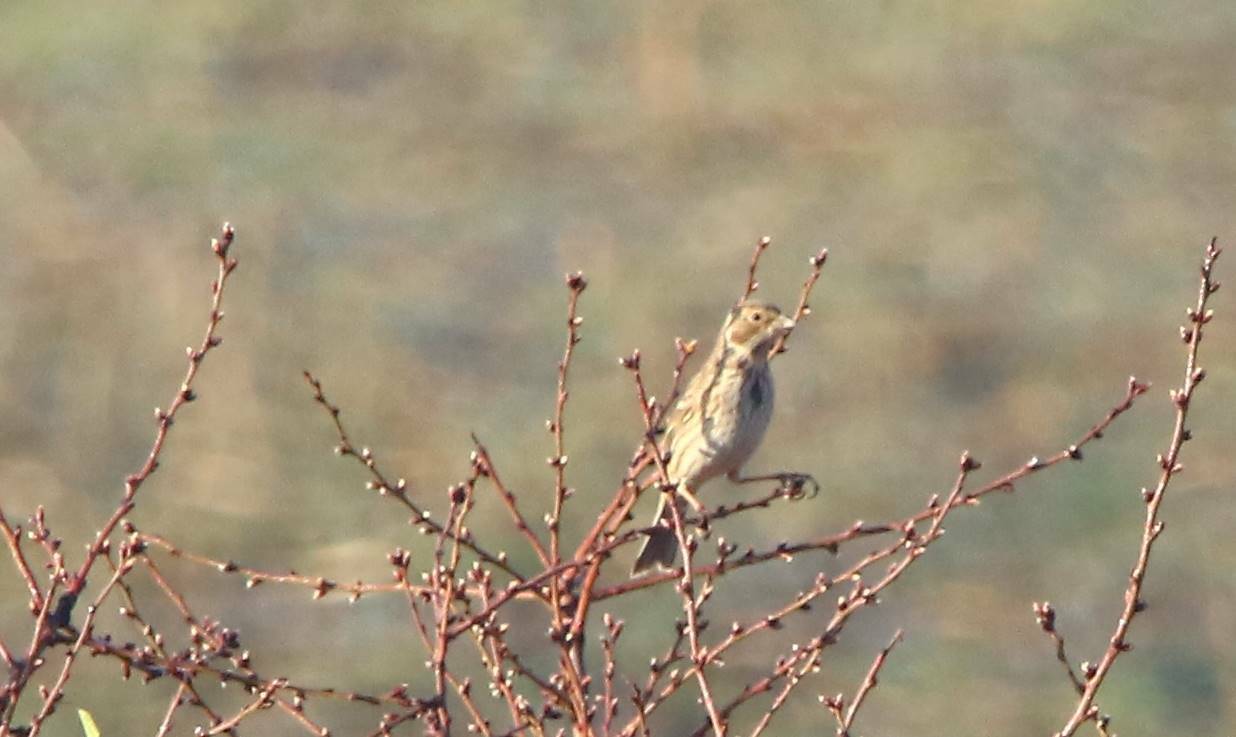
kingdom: Animalia
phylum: Chordata
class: Aves
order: Passeriformes
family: Emberizidae
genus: Emberiza
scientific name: Emberiza calandra
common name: Corn bunting
